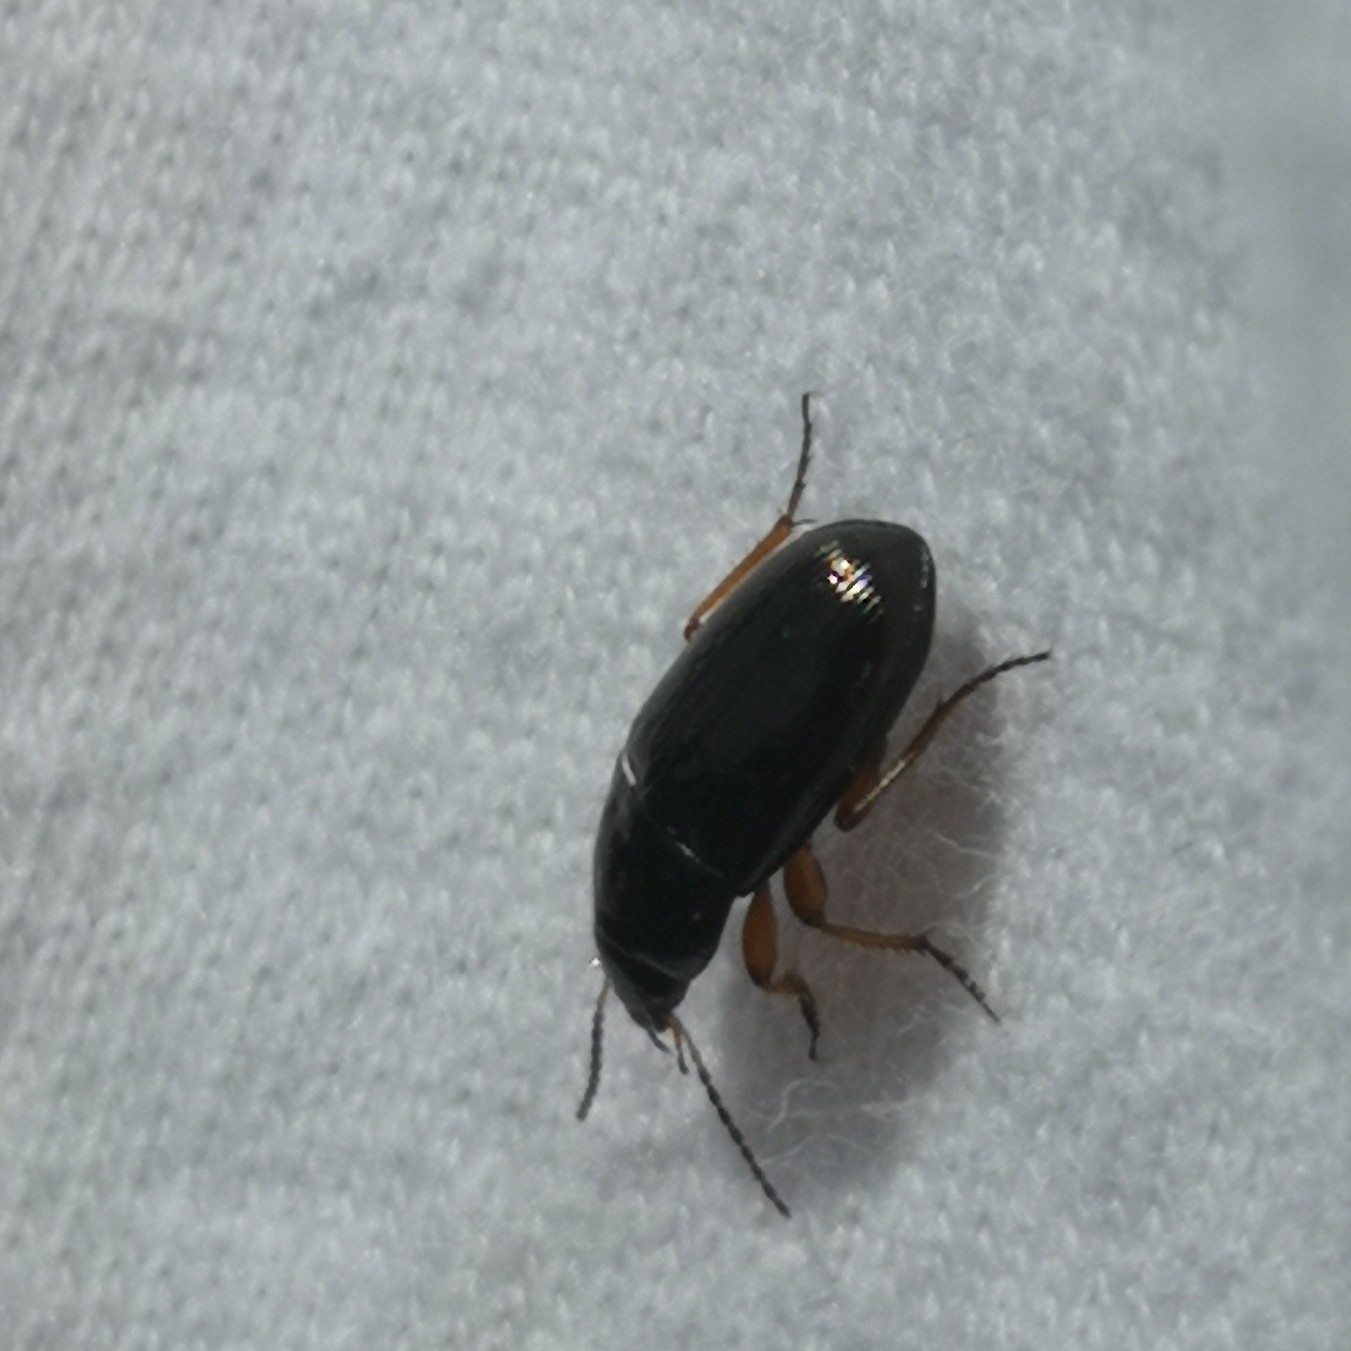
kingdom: Animalia
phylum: Arthropoda
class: Insecta
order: Coleoptera
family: Carabidae
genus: Amara
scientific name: Amara familiaris
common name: Familiar harp round beetle
